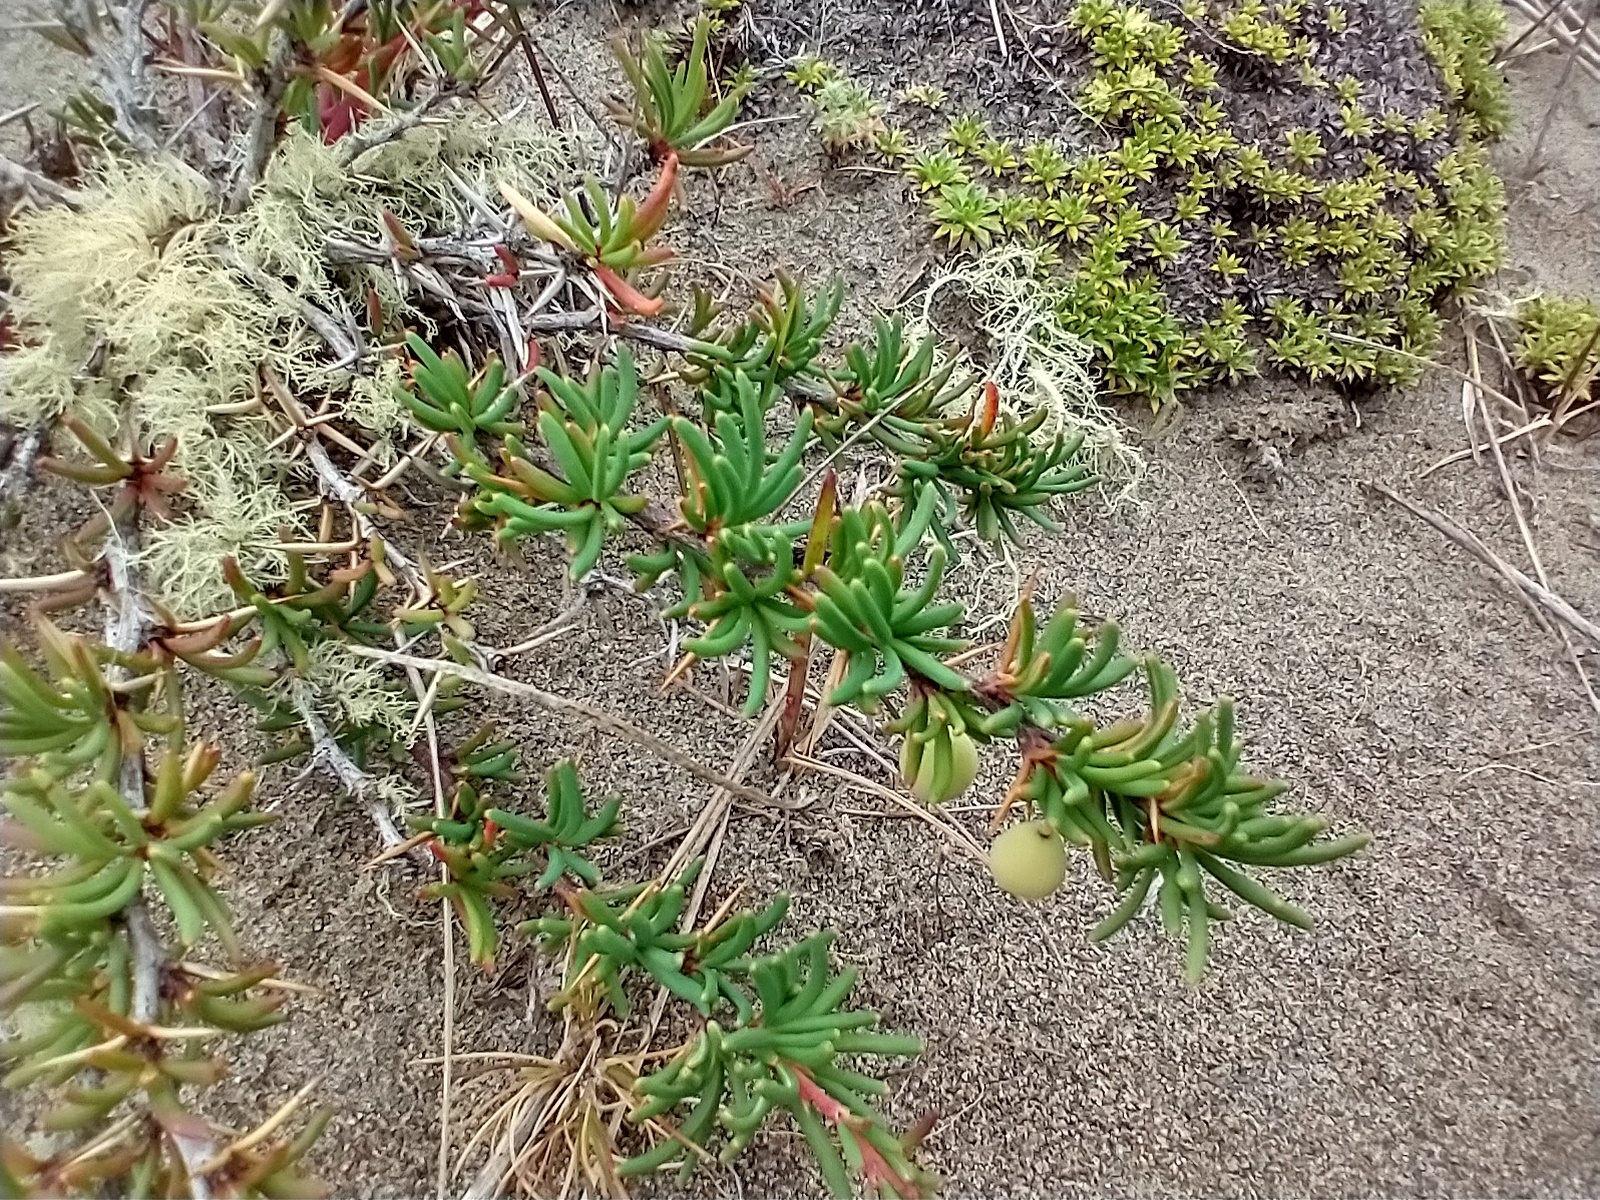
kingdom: Plantae
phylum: Tracheophyta
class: Magnoliopsida
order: Ranunculales
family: Berberidaceae
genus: Berberis
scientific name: Berberis empetrifolia
